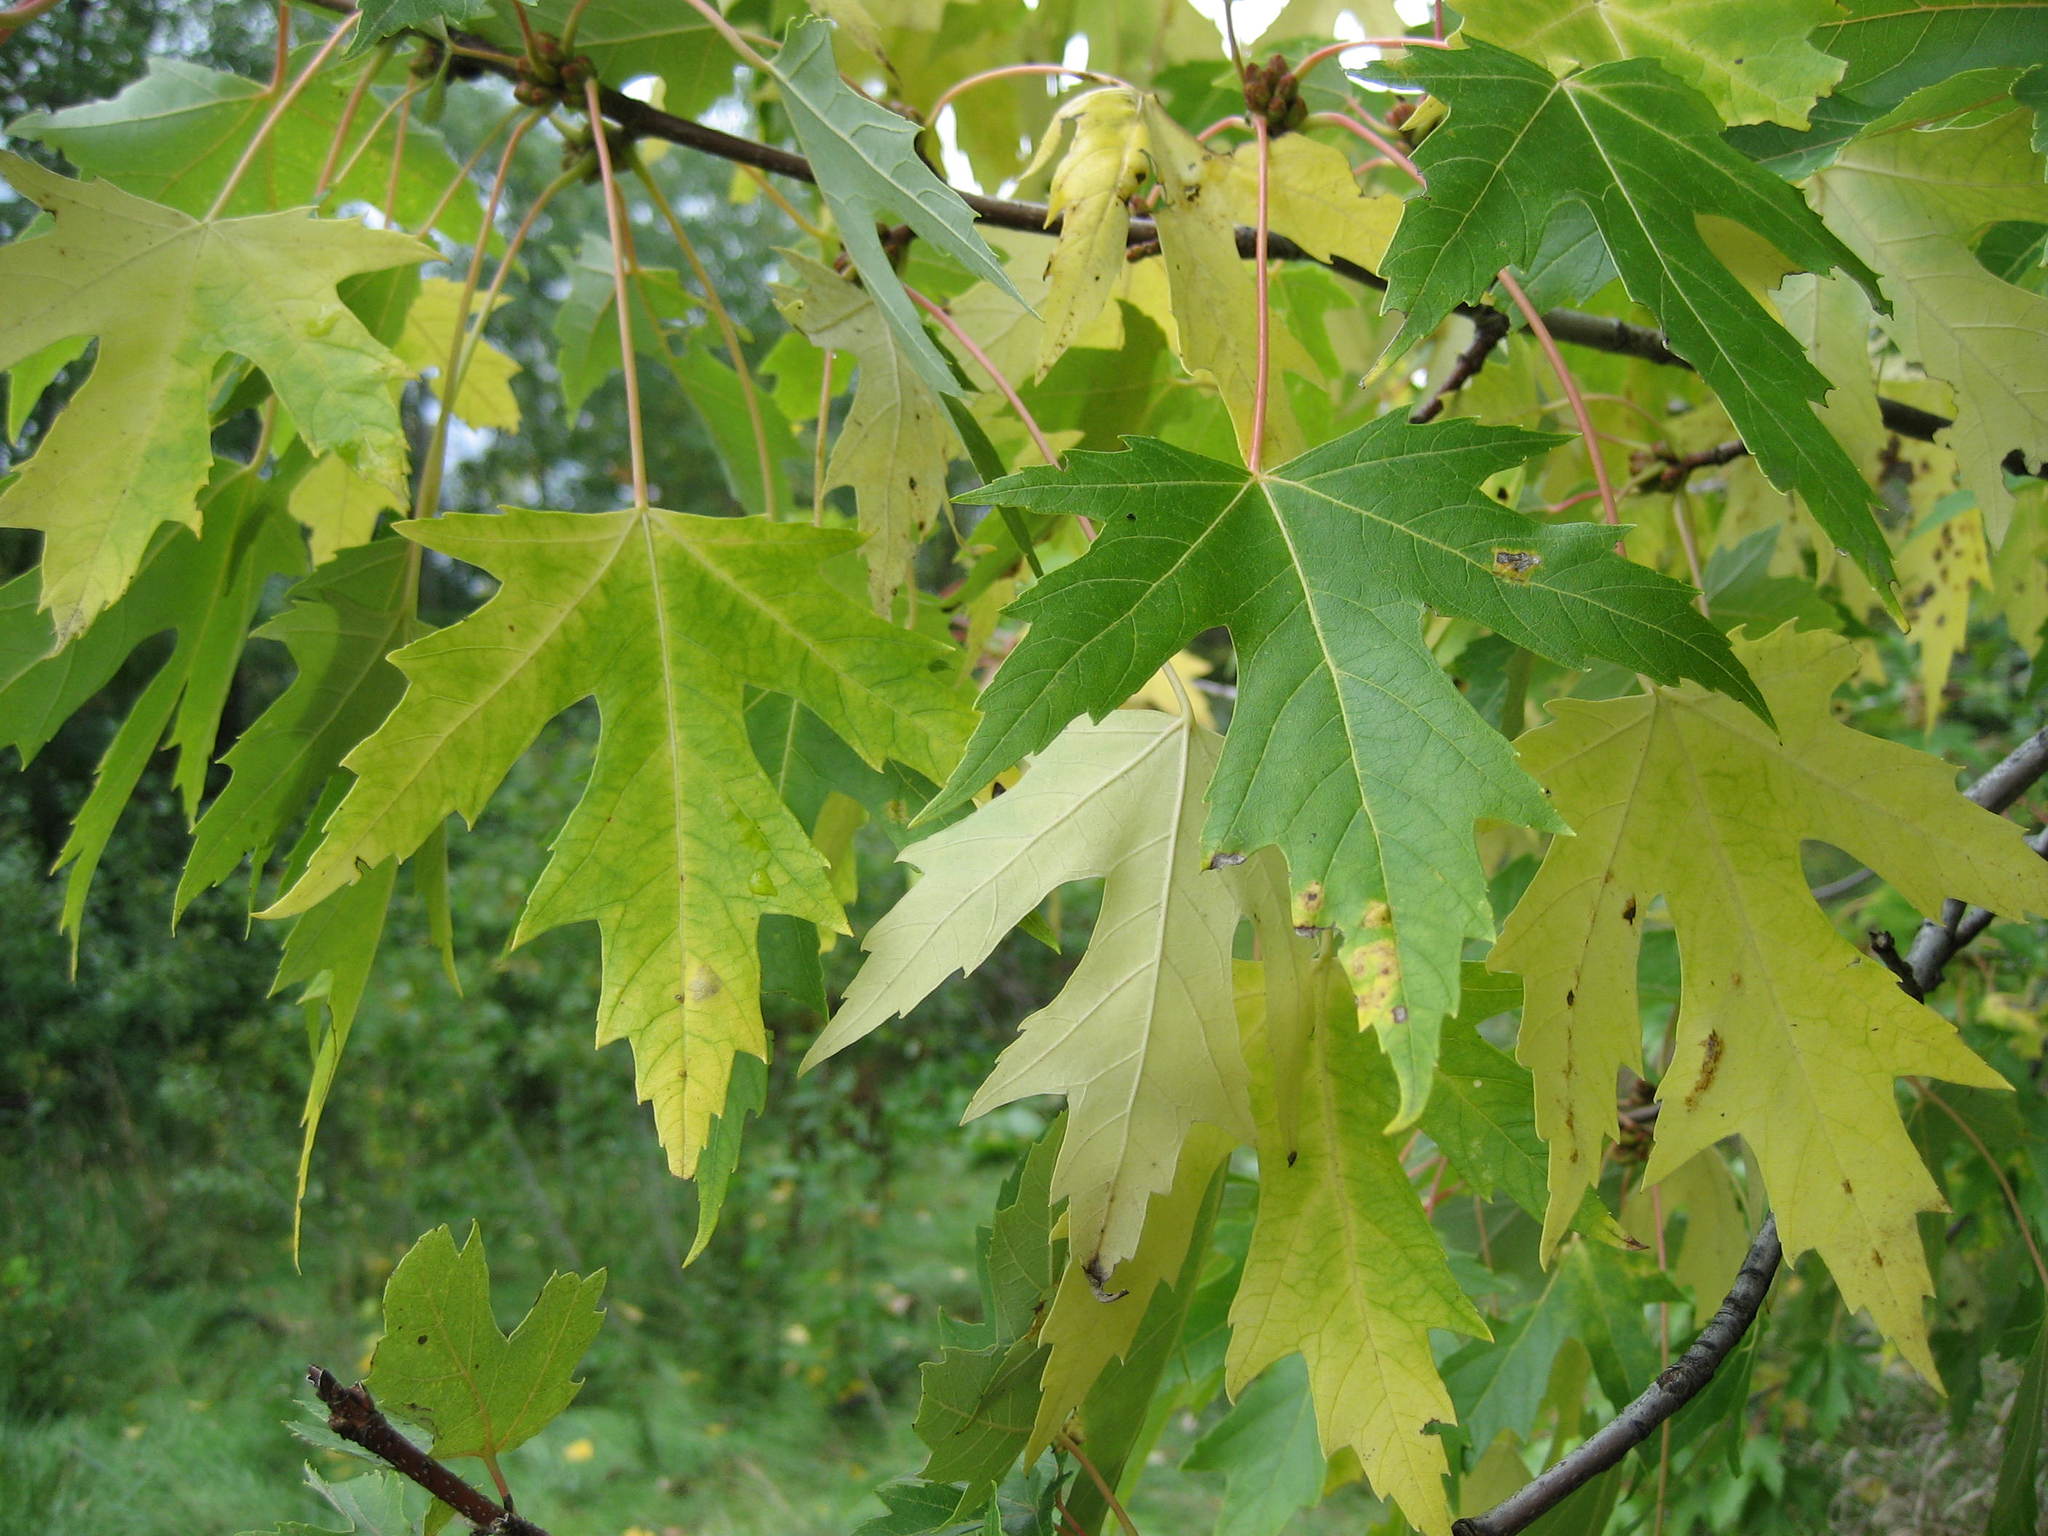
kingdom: Plantae
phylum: Tracheophyta
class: Magnoliopsida
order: Sapindales
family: Sapindaceae
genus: Acer
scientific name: Acer saccharinum
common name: Silver maple
